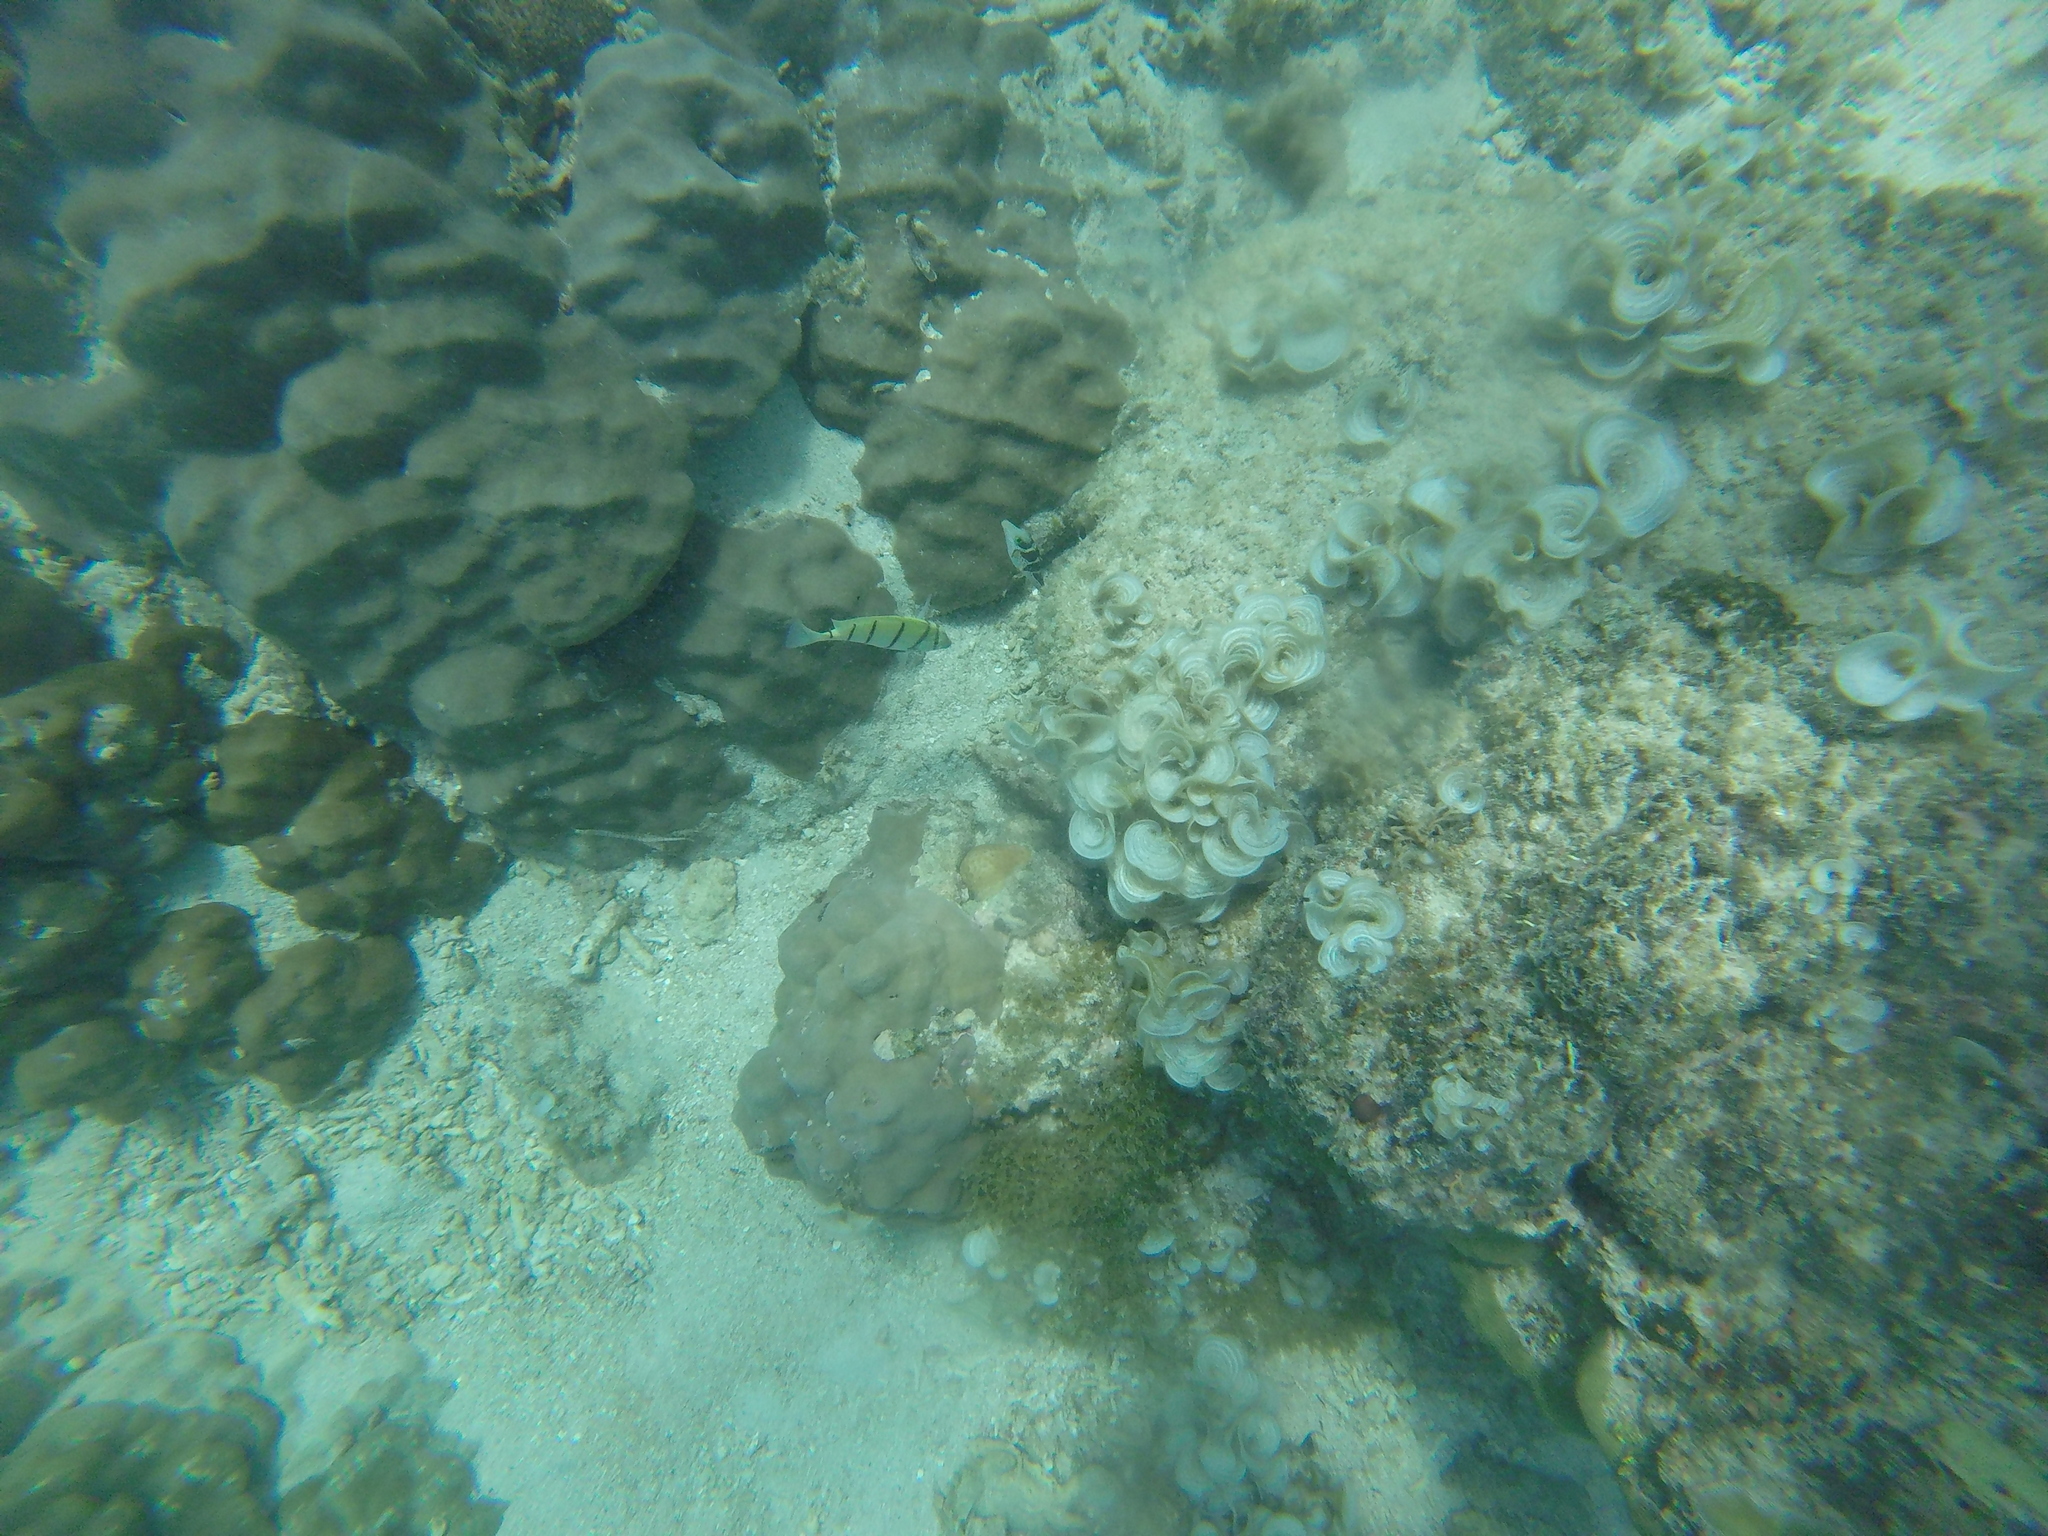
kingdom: Animalia
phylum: Chordata
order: Perciformes
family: Acanthuridae
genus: Acanthurus
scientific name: Acanthurus triostegus
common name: Convict surgeonfish
